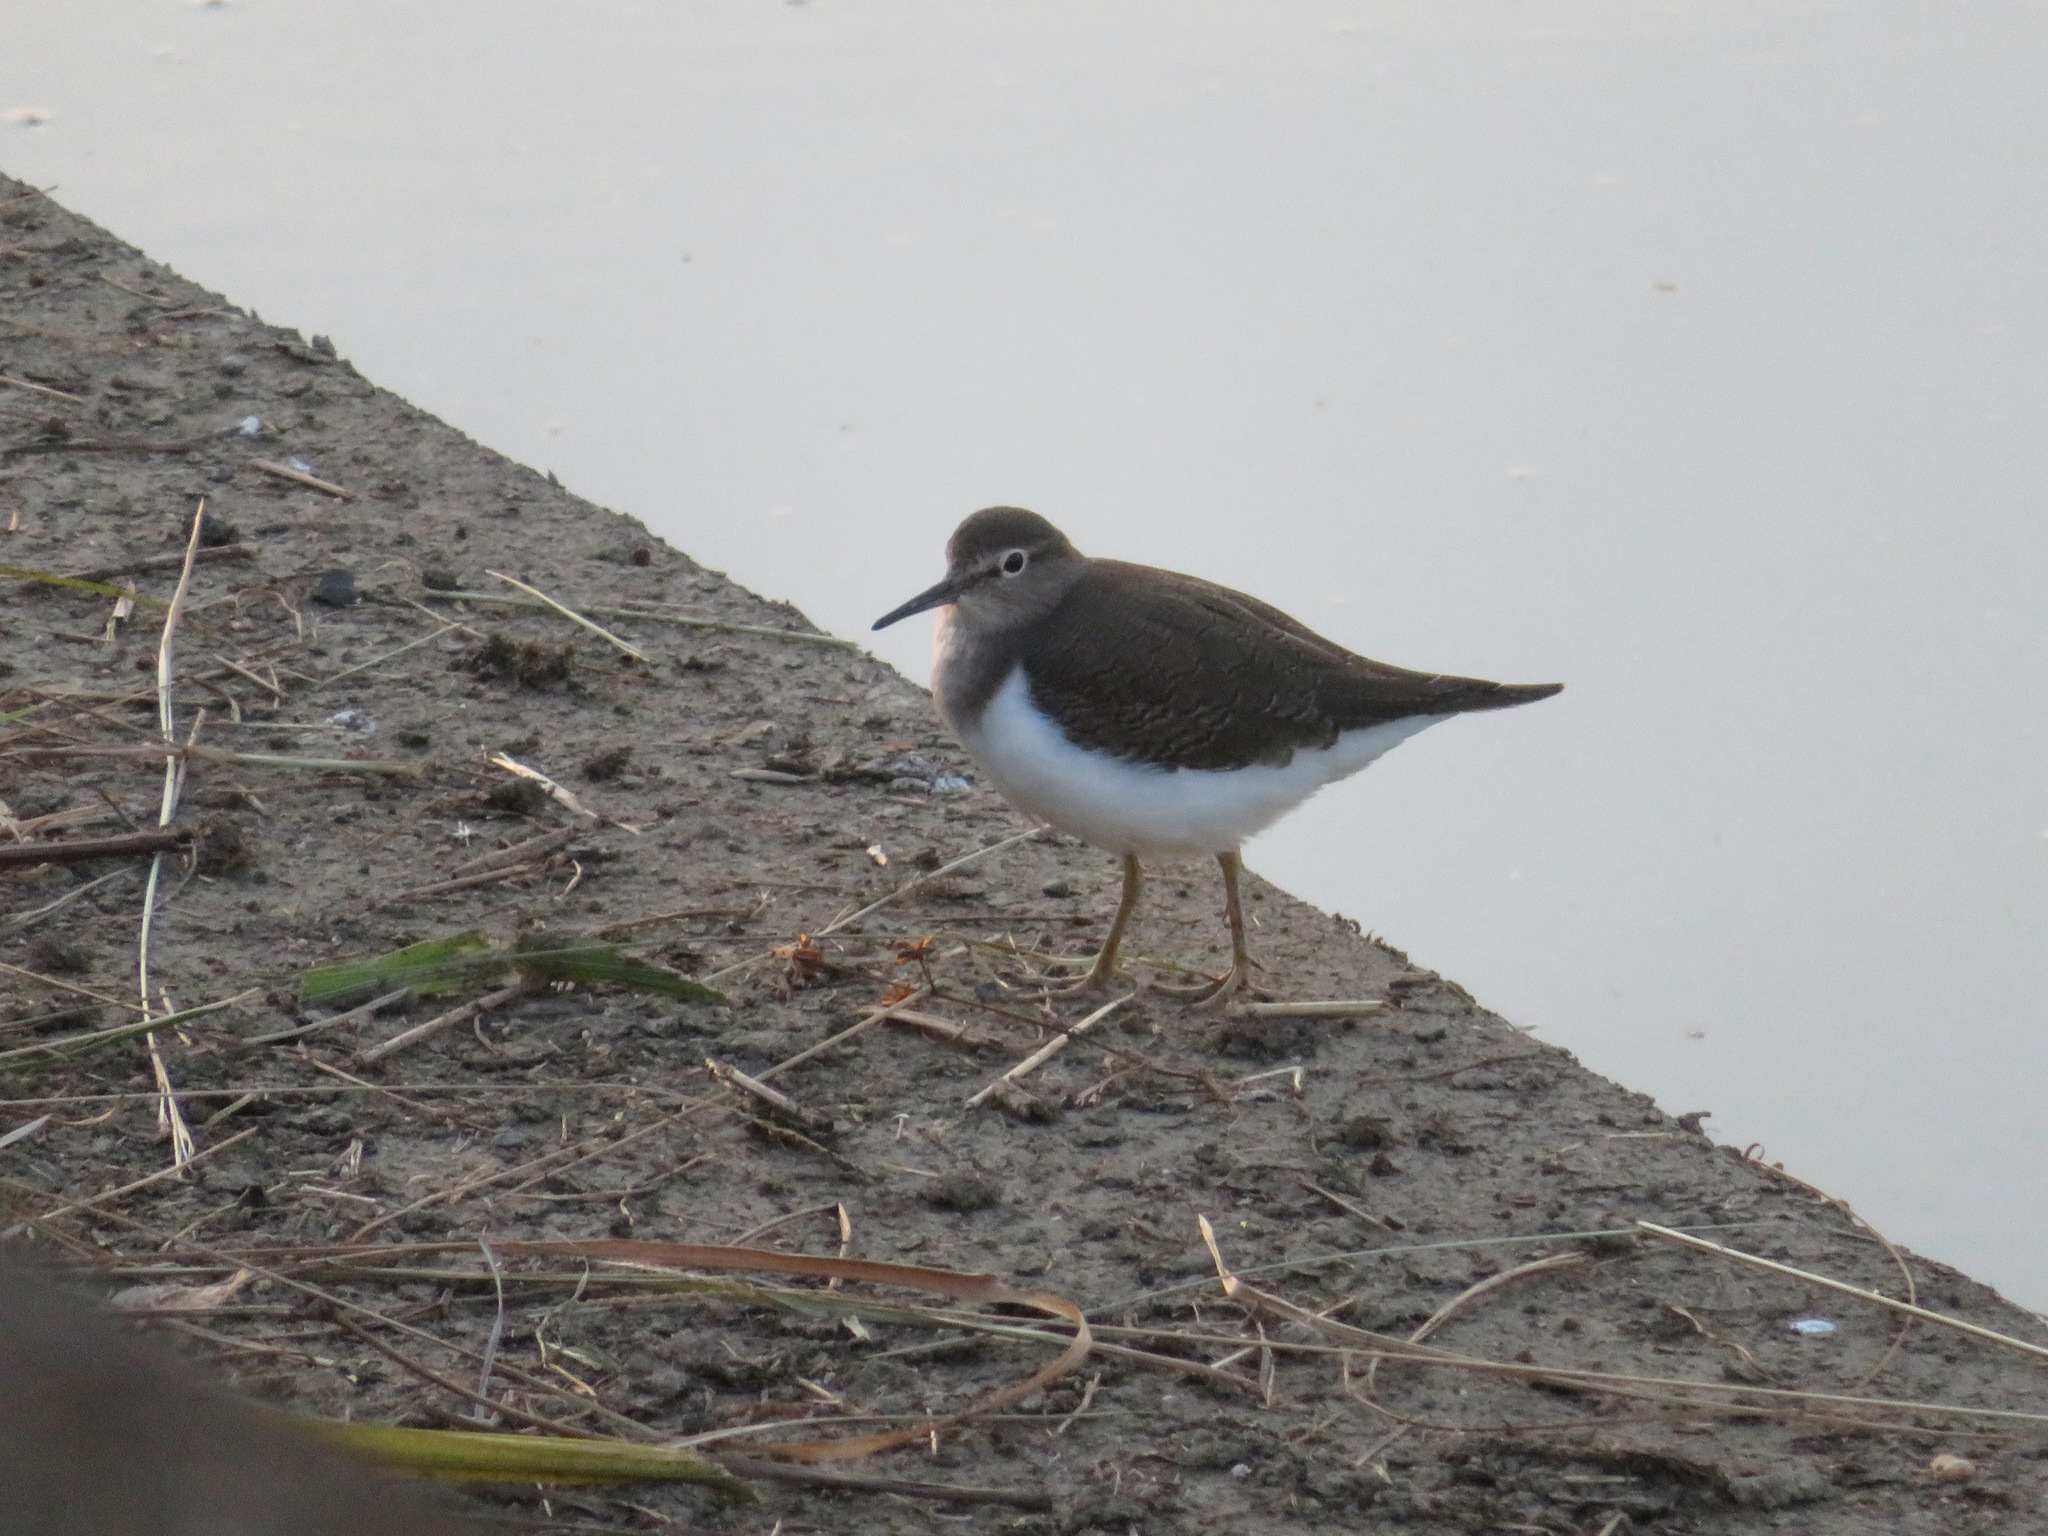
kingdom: Animalia
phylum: Chordata
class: Aves
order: Charadriiformes
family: Scolopacidae
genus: Actitis
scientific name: Actitis hypoleucos
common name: Common sandpiper
